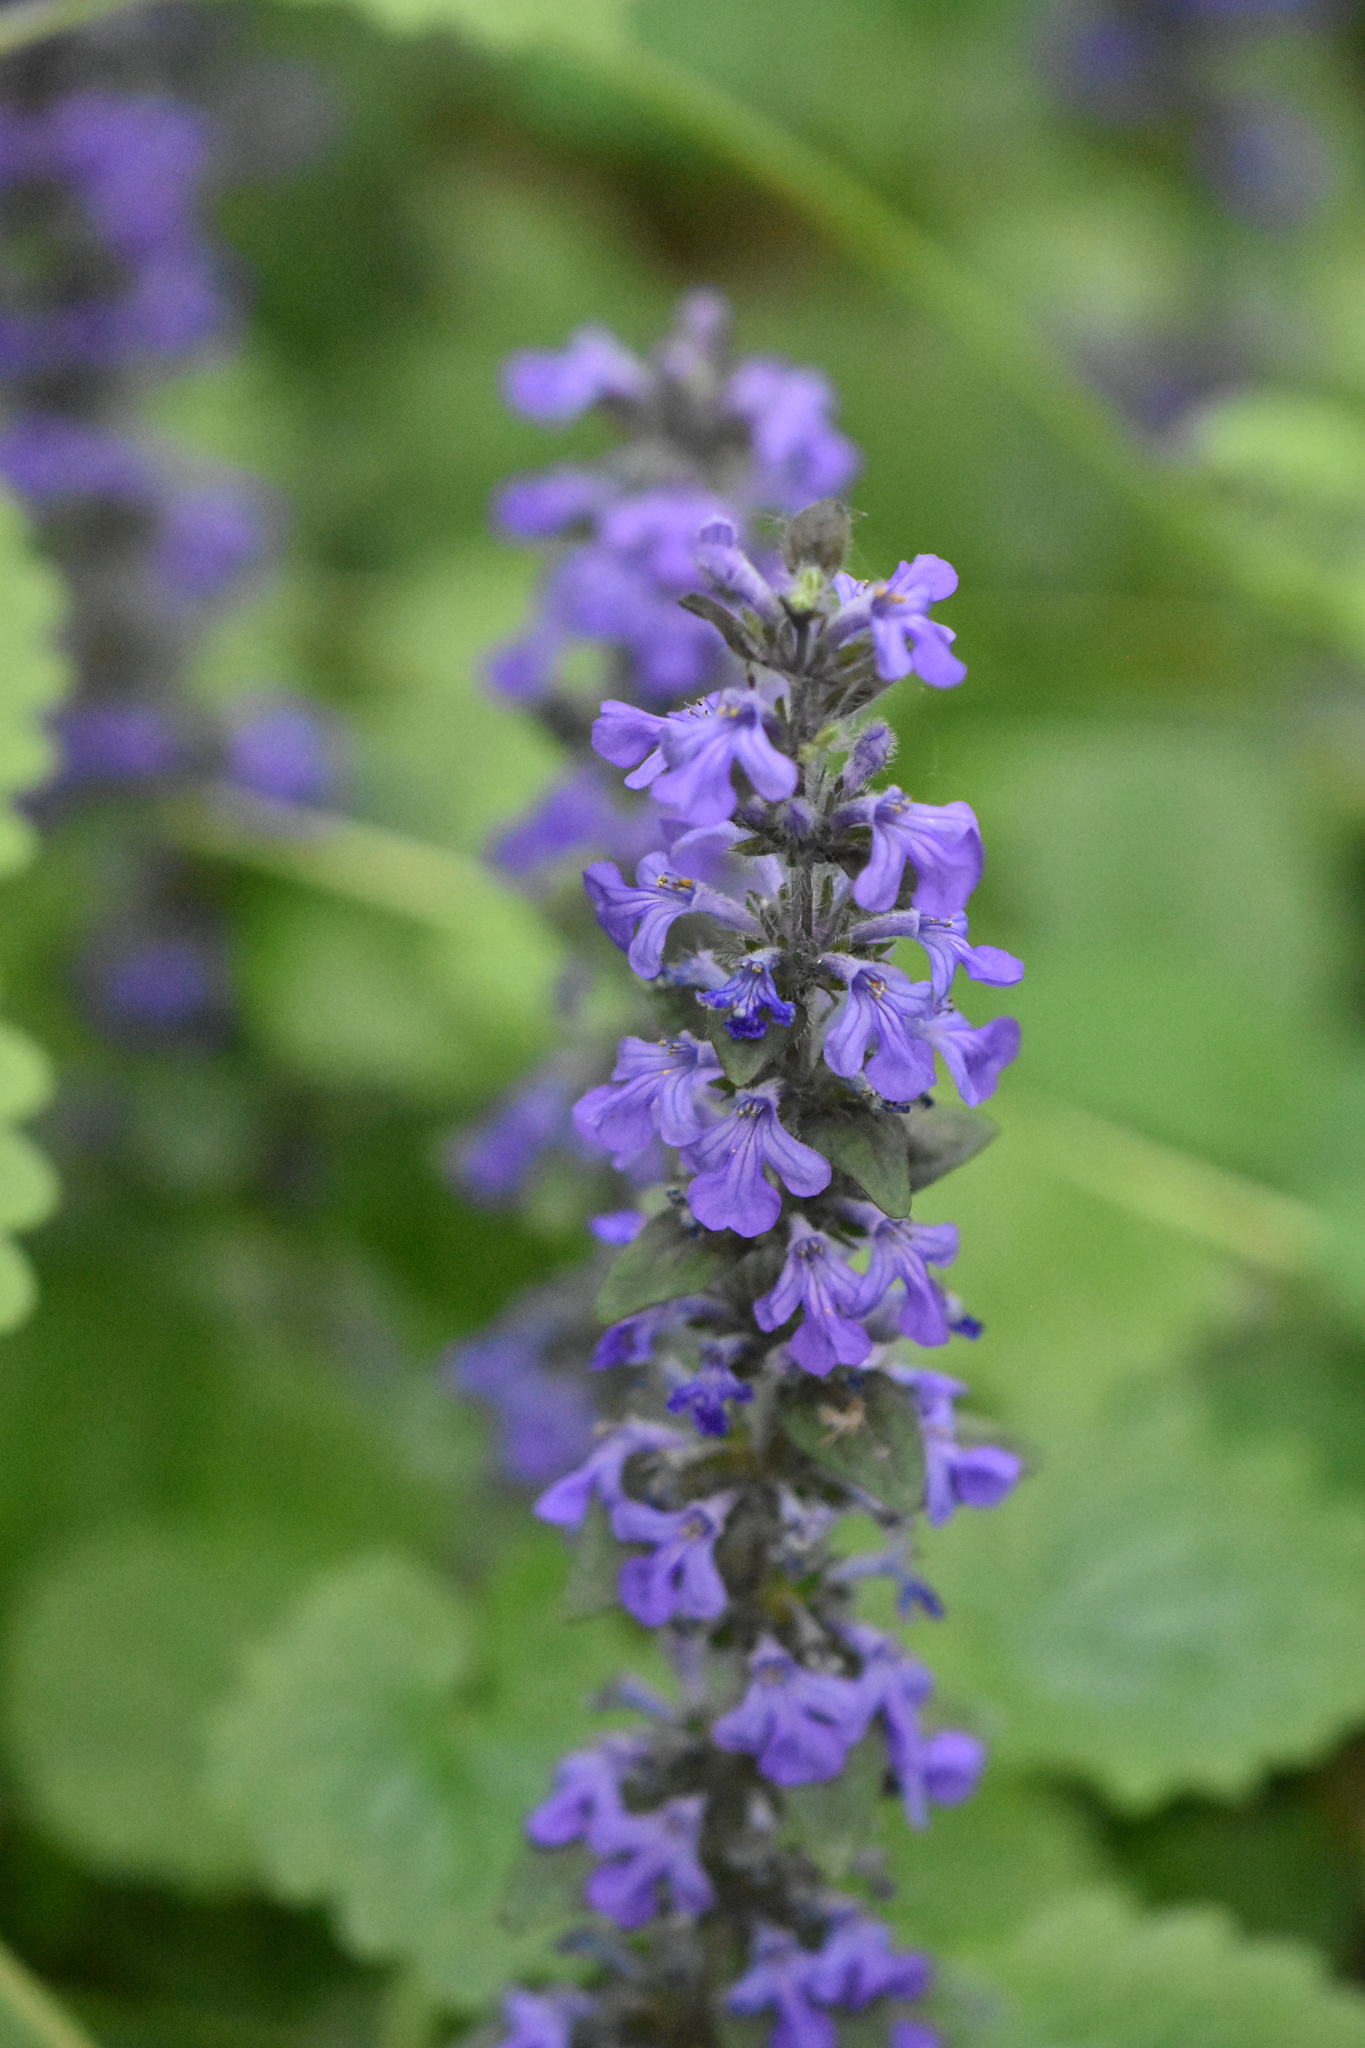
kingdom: Plantae
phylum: Tracheophyta
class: Magnoliopsida
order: Lamiales
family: Lamiaceae
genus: Ajuga
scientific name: Ajuga reptans
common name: Bugle
